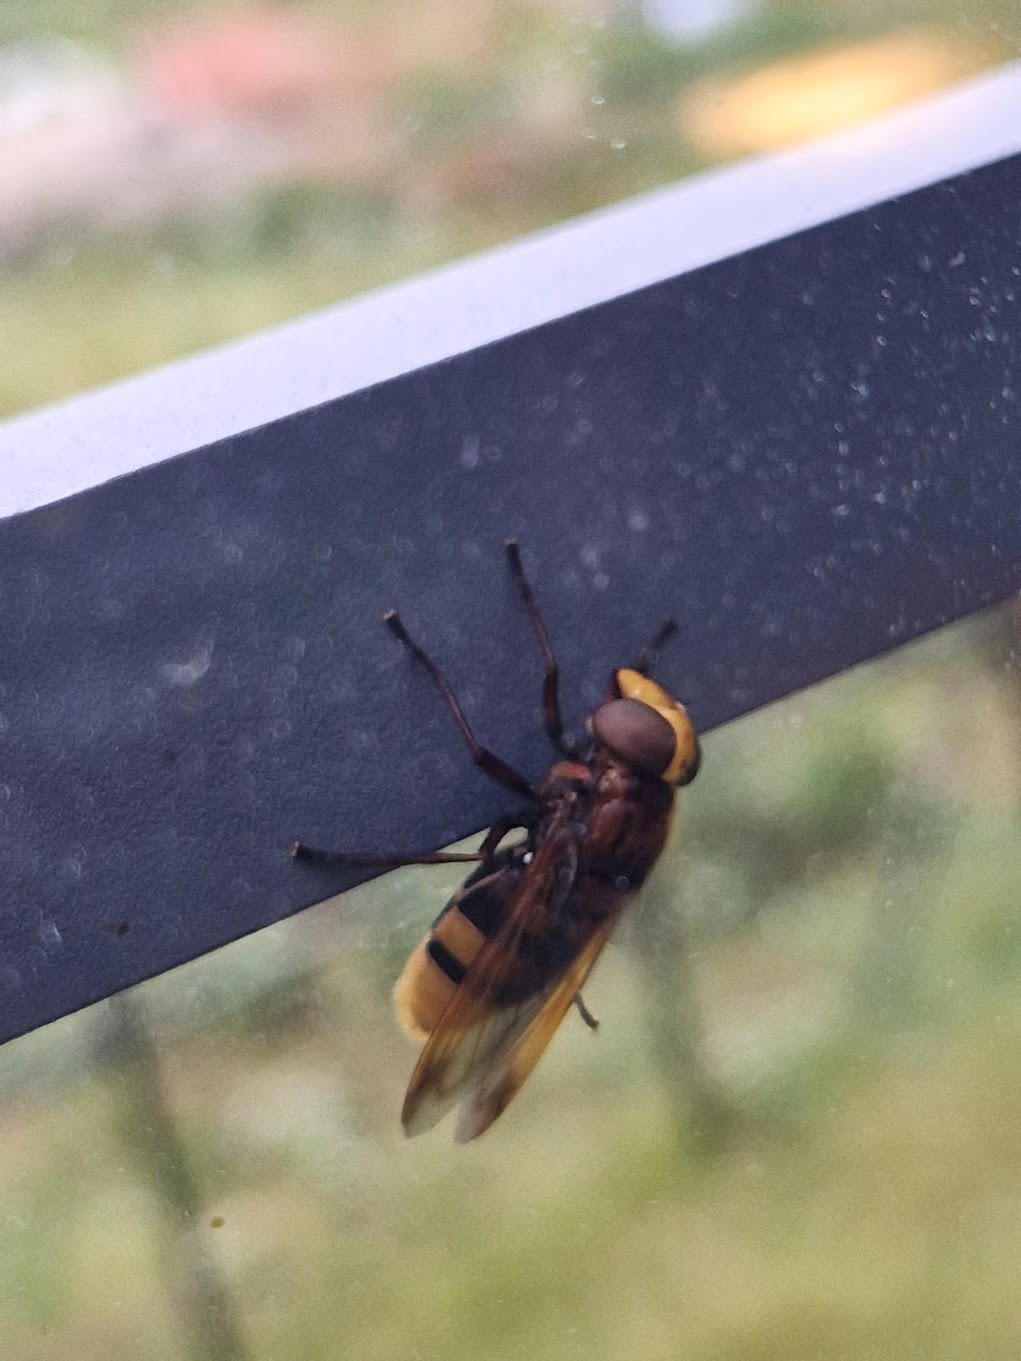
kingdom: Animalia
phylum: Arthropoda
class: Insecta
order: Diptera
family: Syrphidae
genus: Volucella
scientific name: Volucella zonaria
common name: Hornet hoverfly
